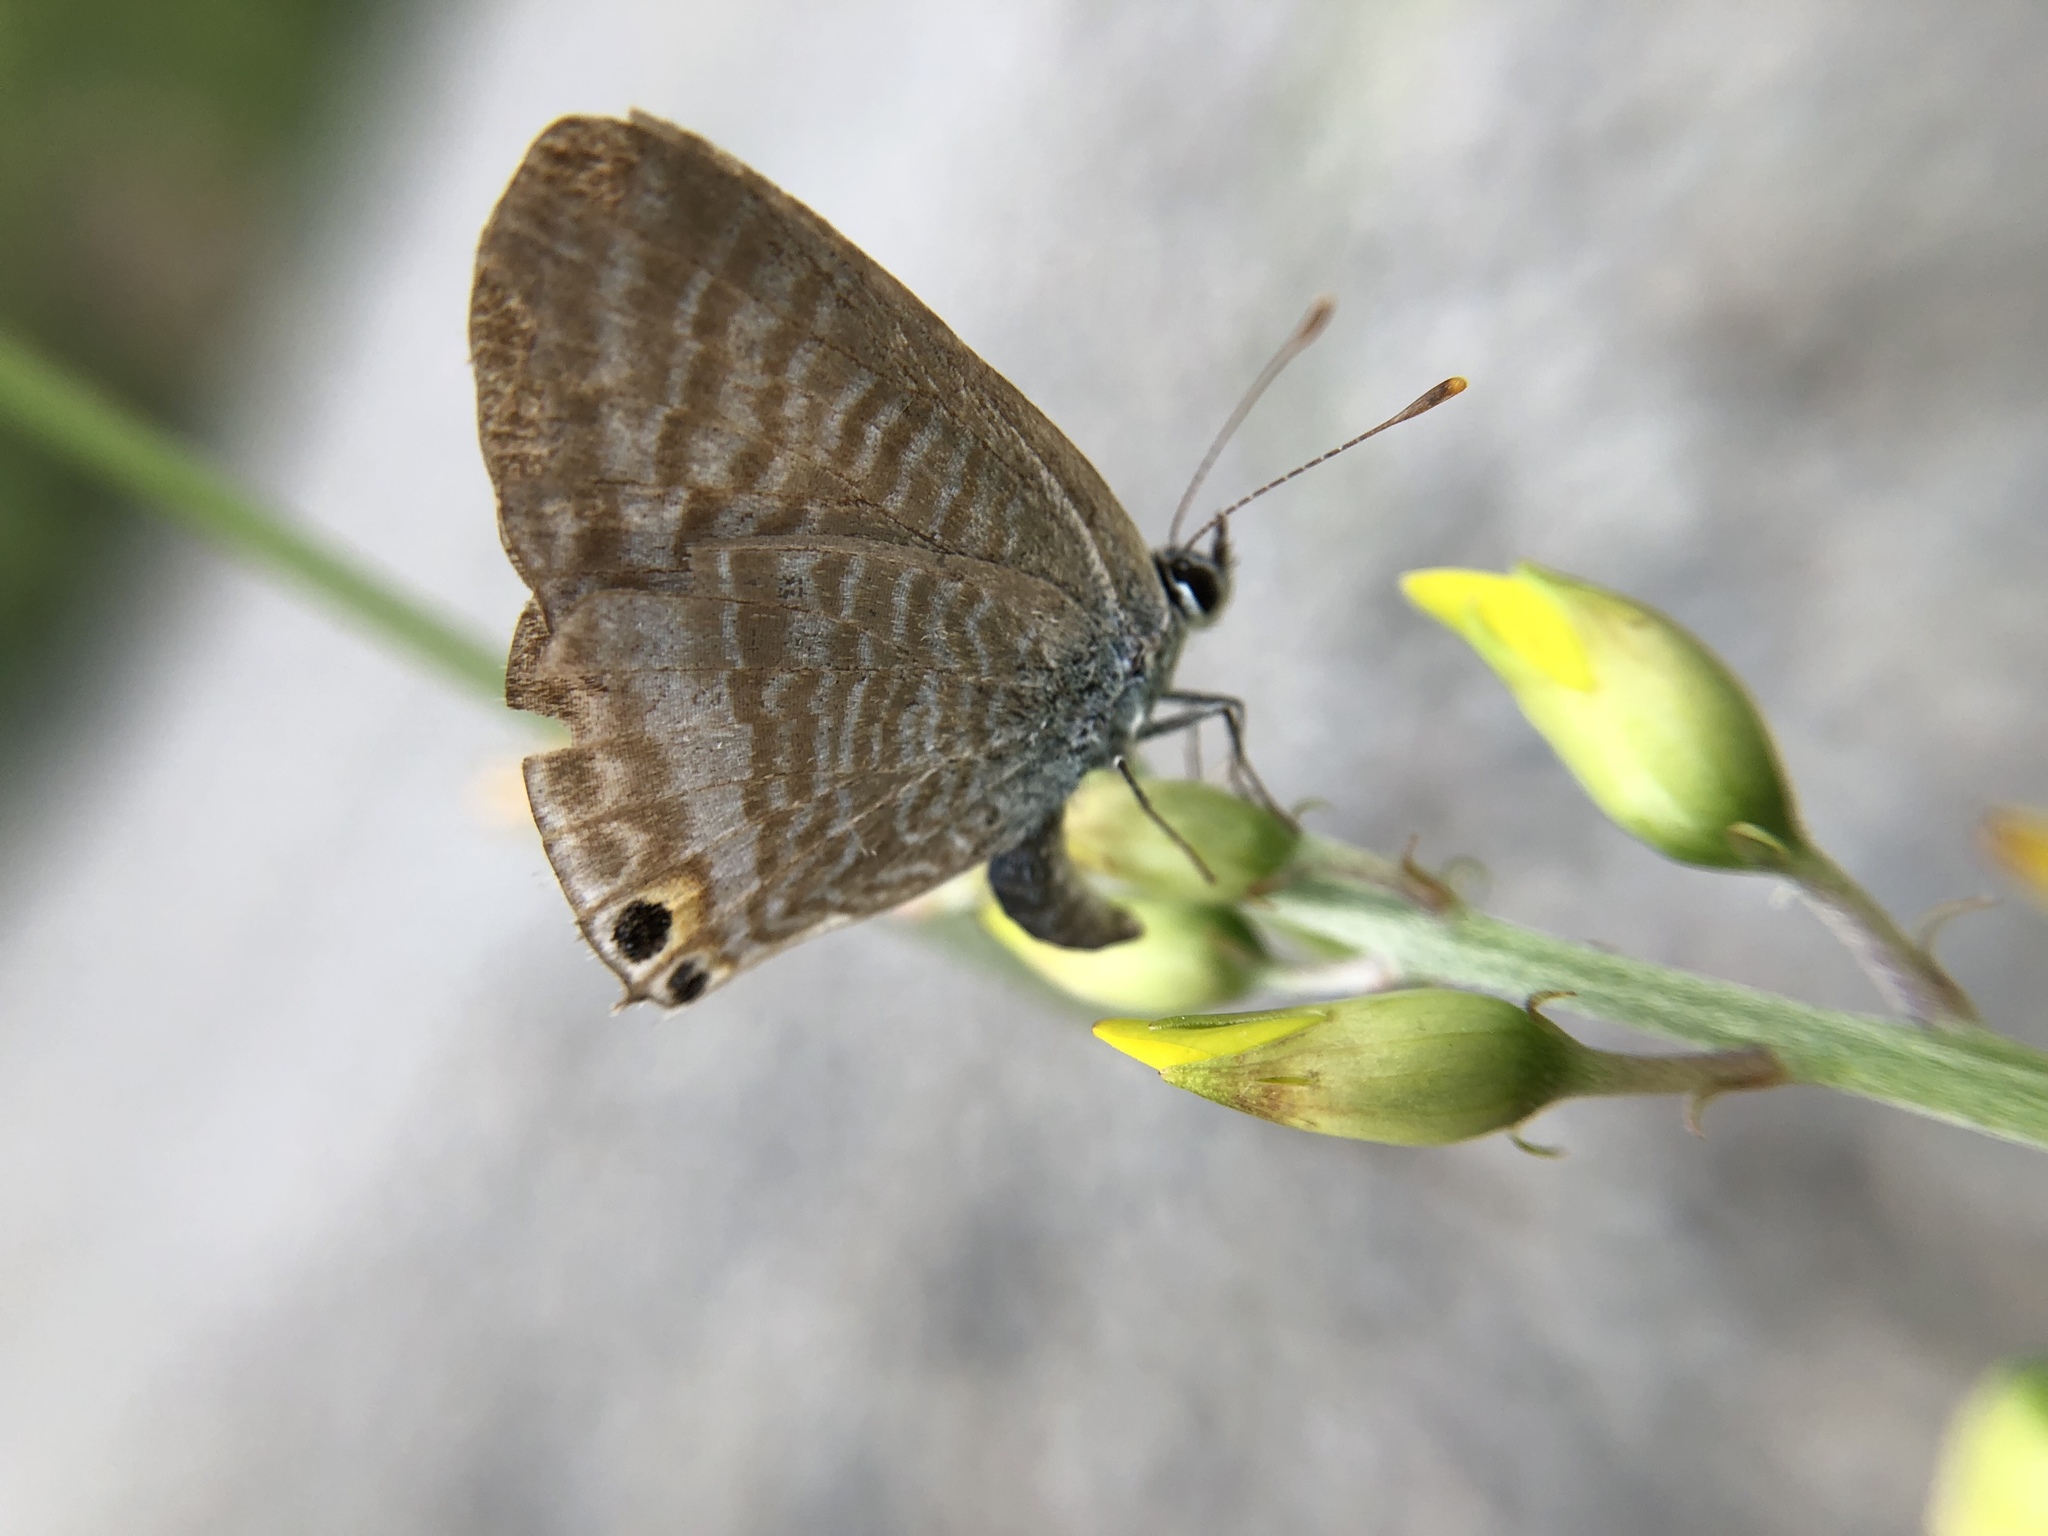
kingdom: Animalia
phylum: Arthropoda
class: Insecta
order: Lepidoptera
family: Lycaenidae
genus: Lampides
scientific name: Lampides boeticus
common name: Long-tailed blue
